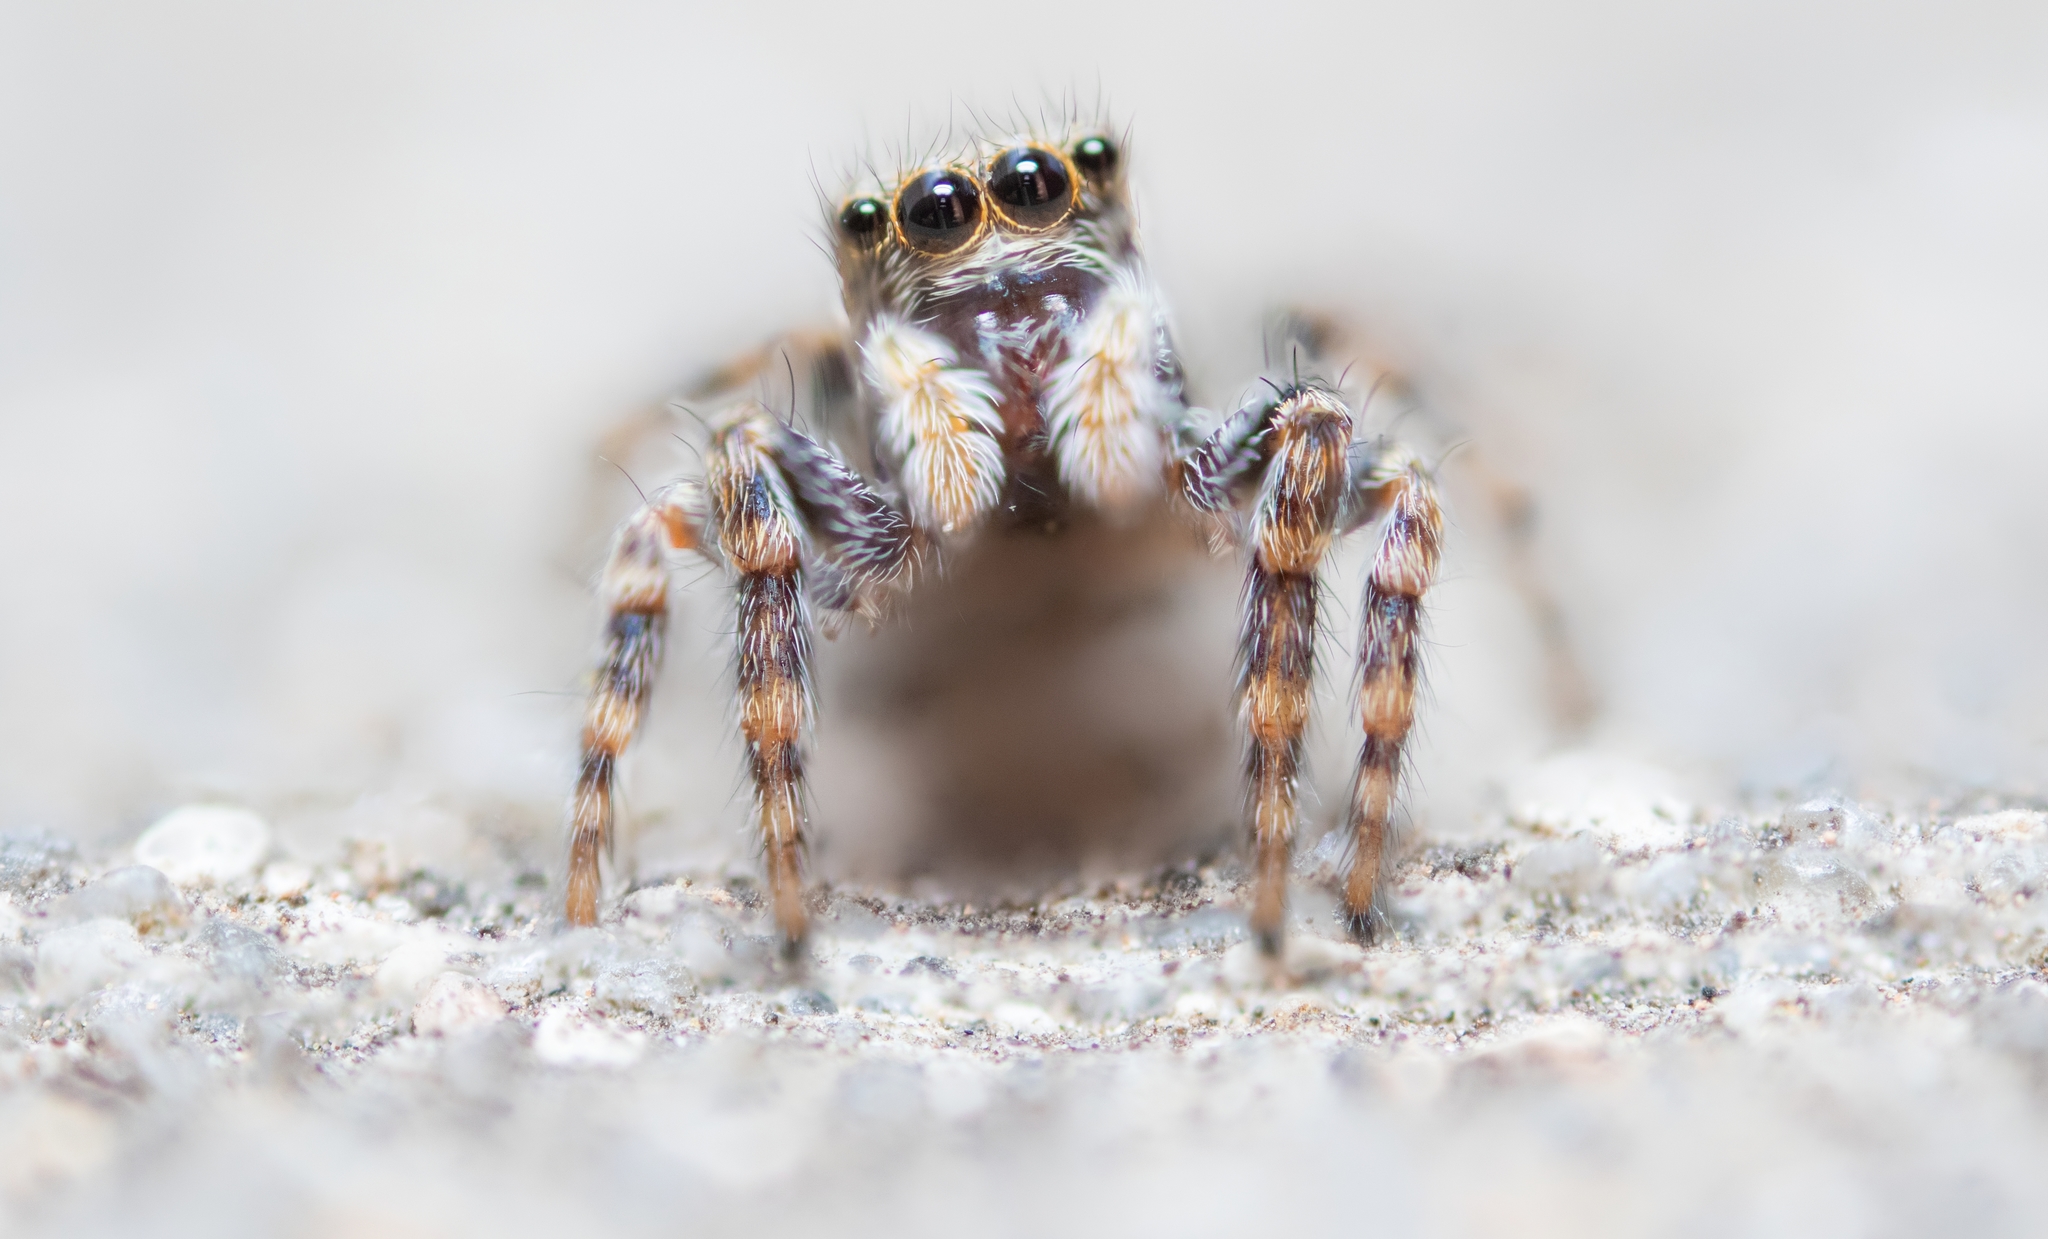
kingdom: Animalia
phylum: Arthropoda
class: Arachnida
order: Araneae
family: Salticidae
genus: Pseudeuophrys
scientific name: Pseudeuophrys lanigera
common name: Jumping spider
